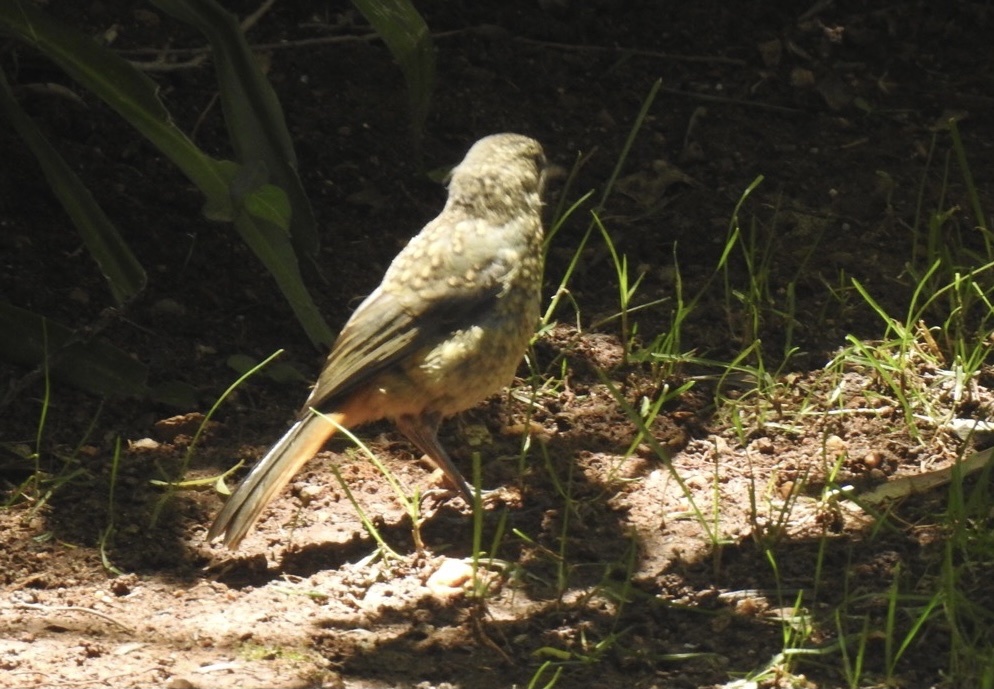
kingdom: Animalia
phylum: Chordata
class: Aves
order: Passeriformes
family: Muscicapidae
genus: Cossypha
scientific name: Cossypha caffra
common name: Cape robin-chat
